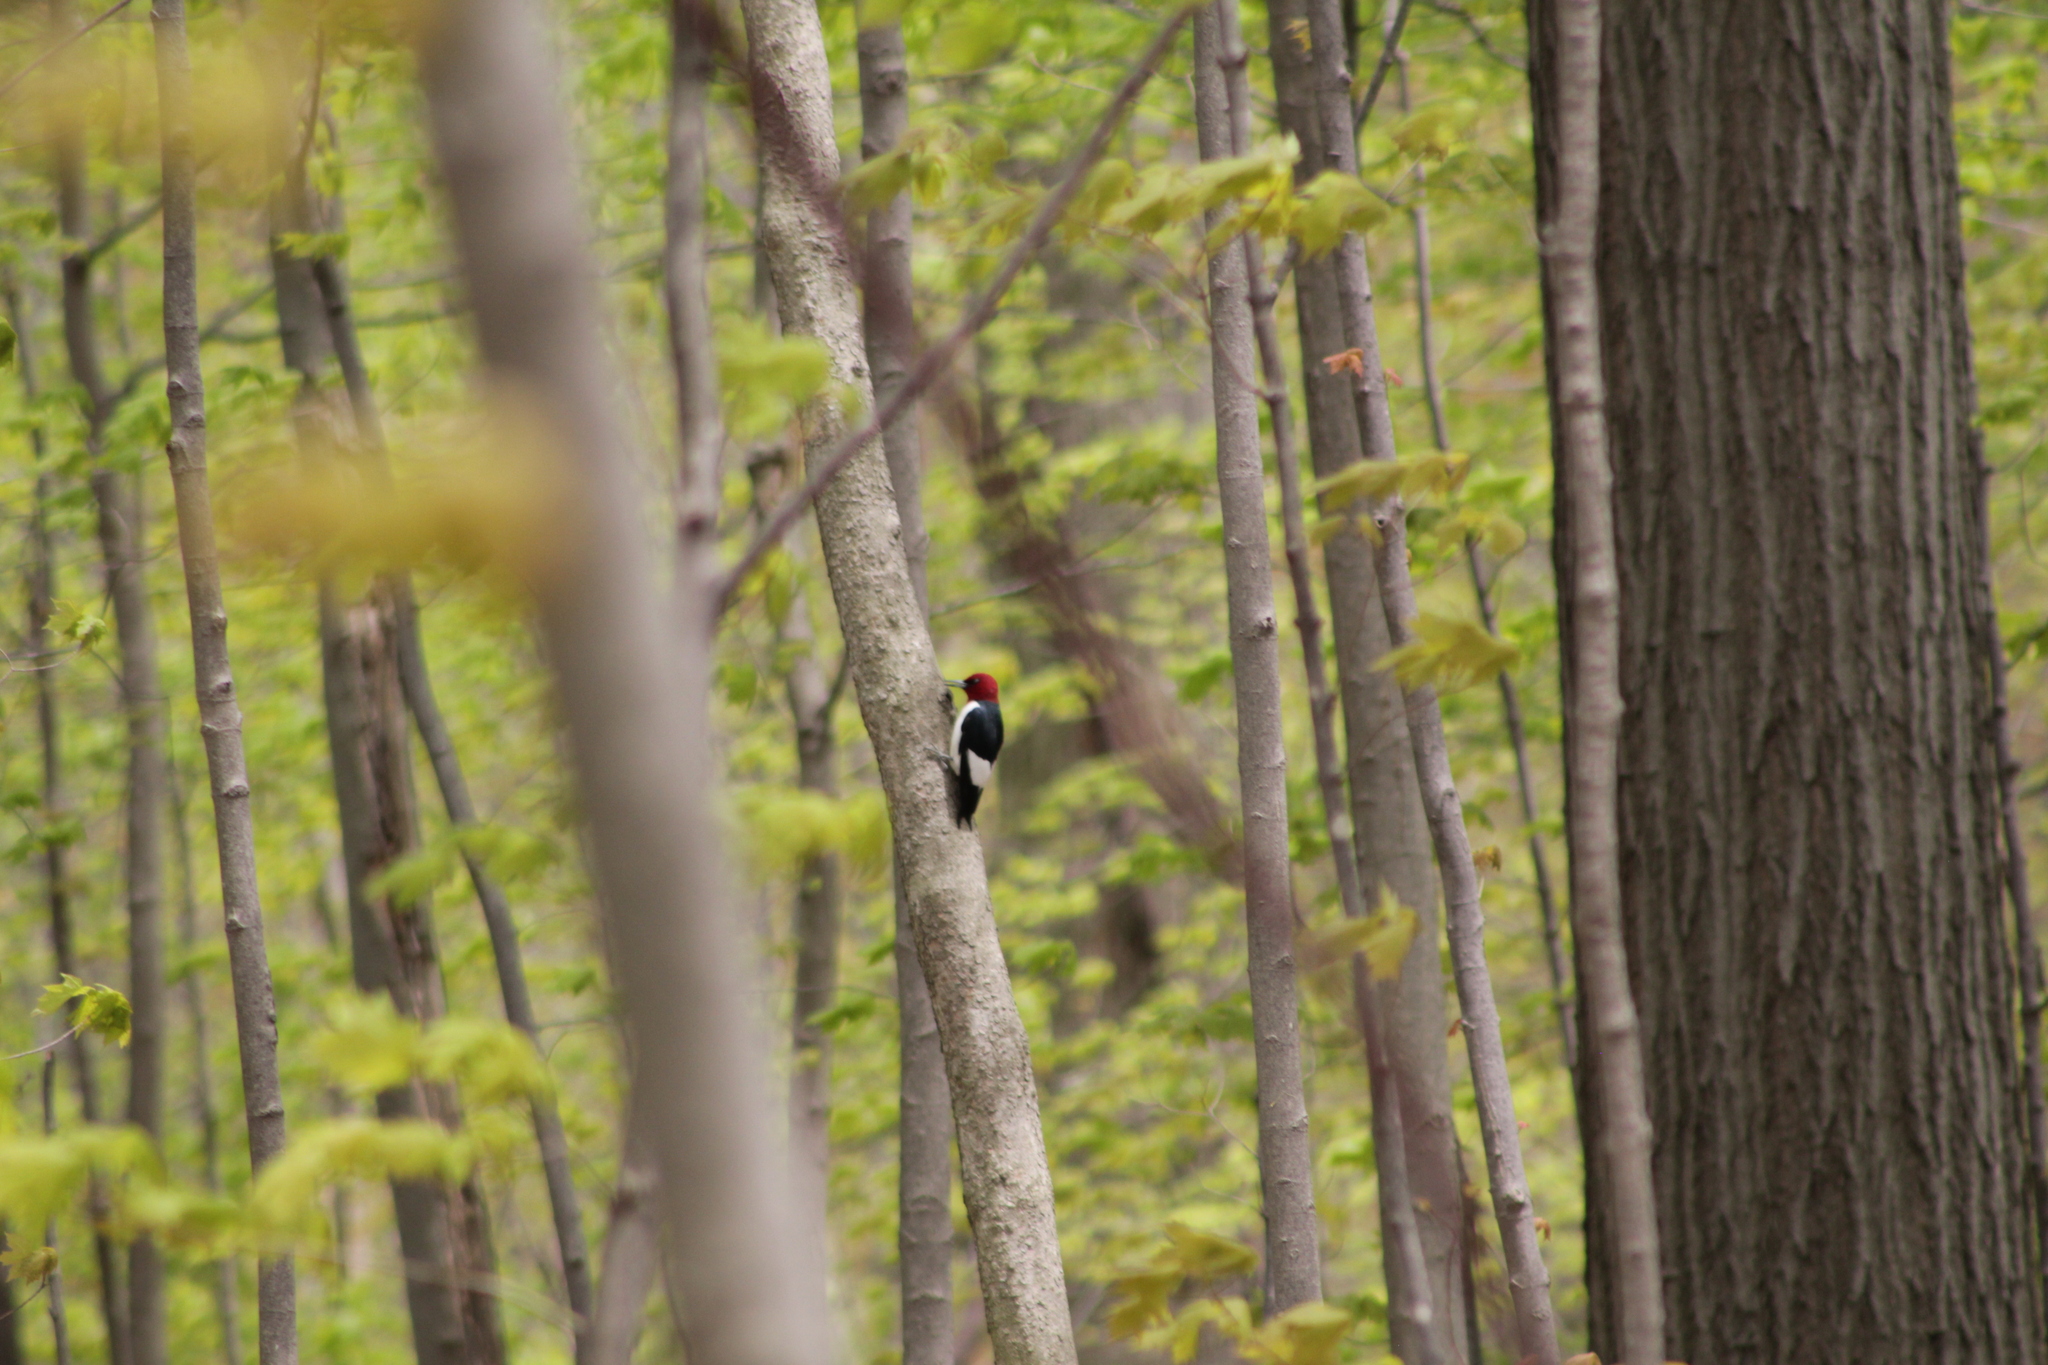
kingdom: Animalia
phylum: Chordata
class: Aves
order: Piciformes
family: Picidae
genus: Melanerpes
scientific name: Melanerpes erythrocephalus
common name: Red-headed woodpecker
